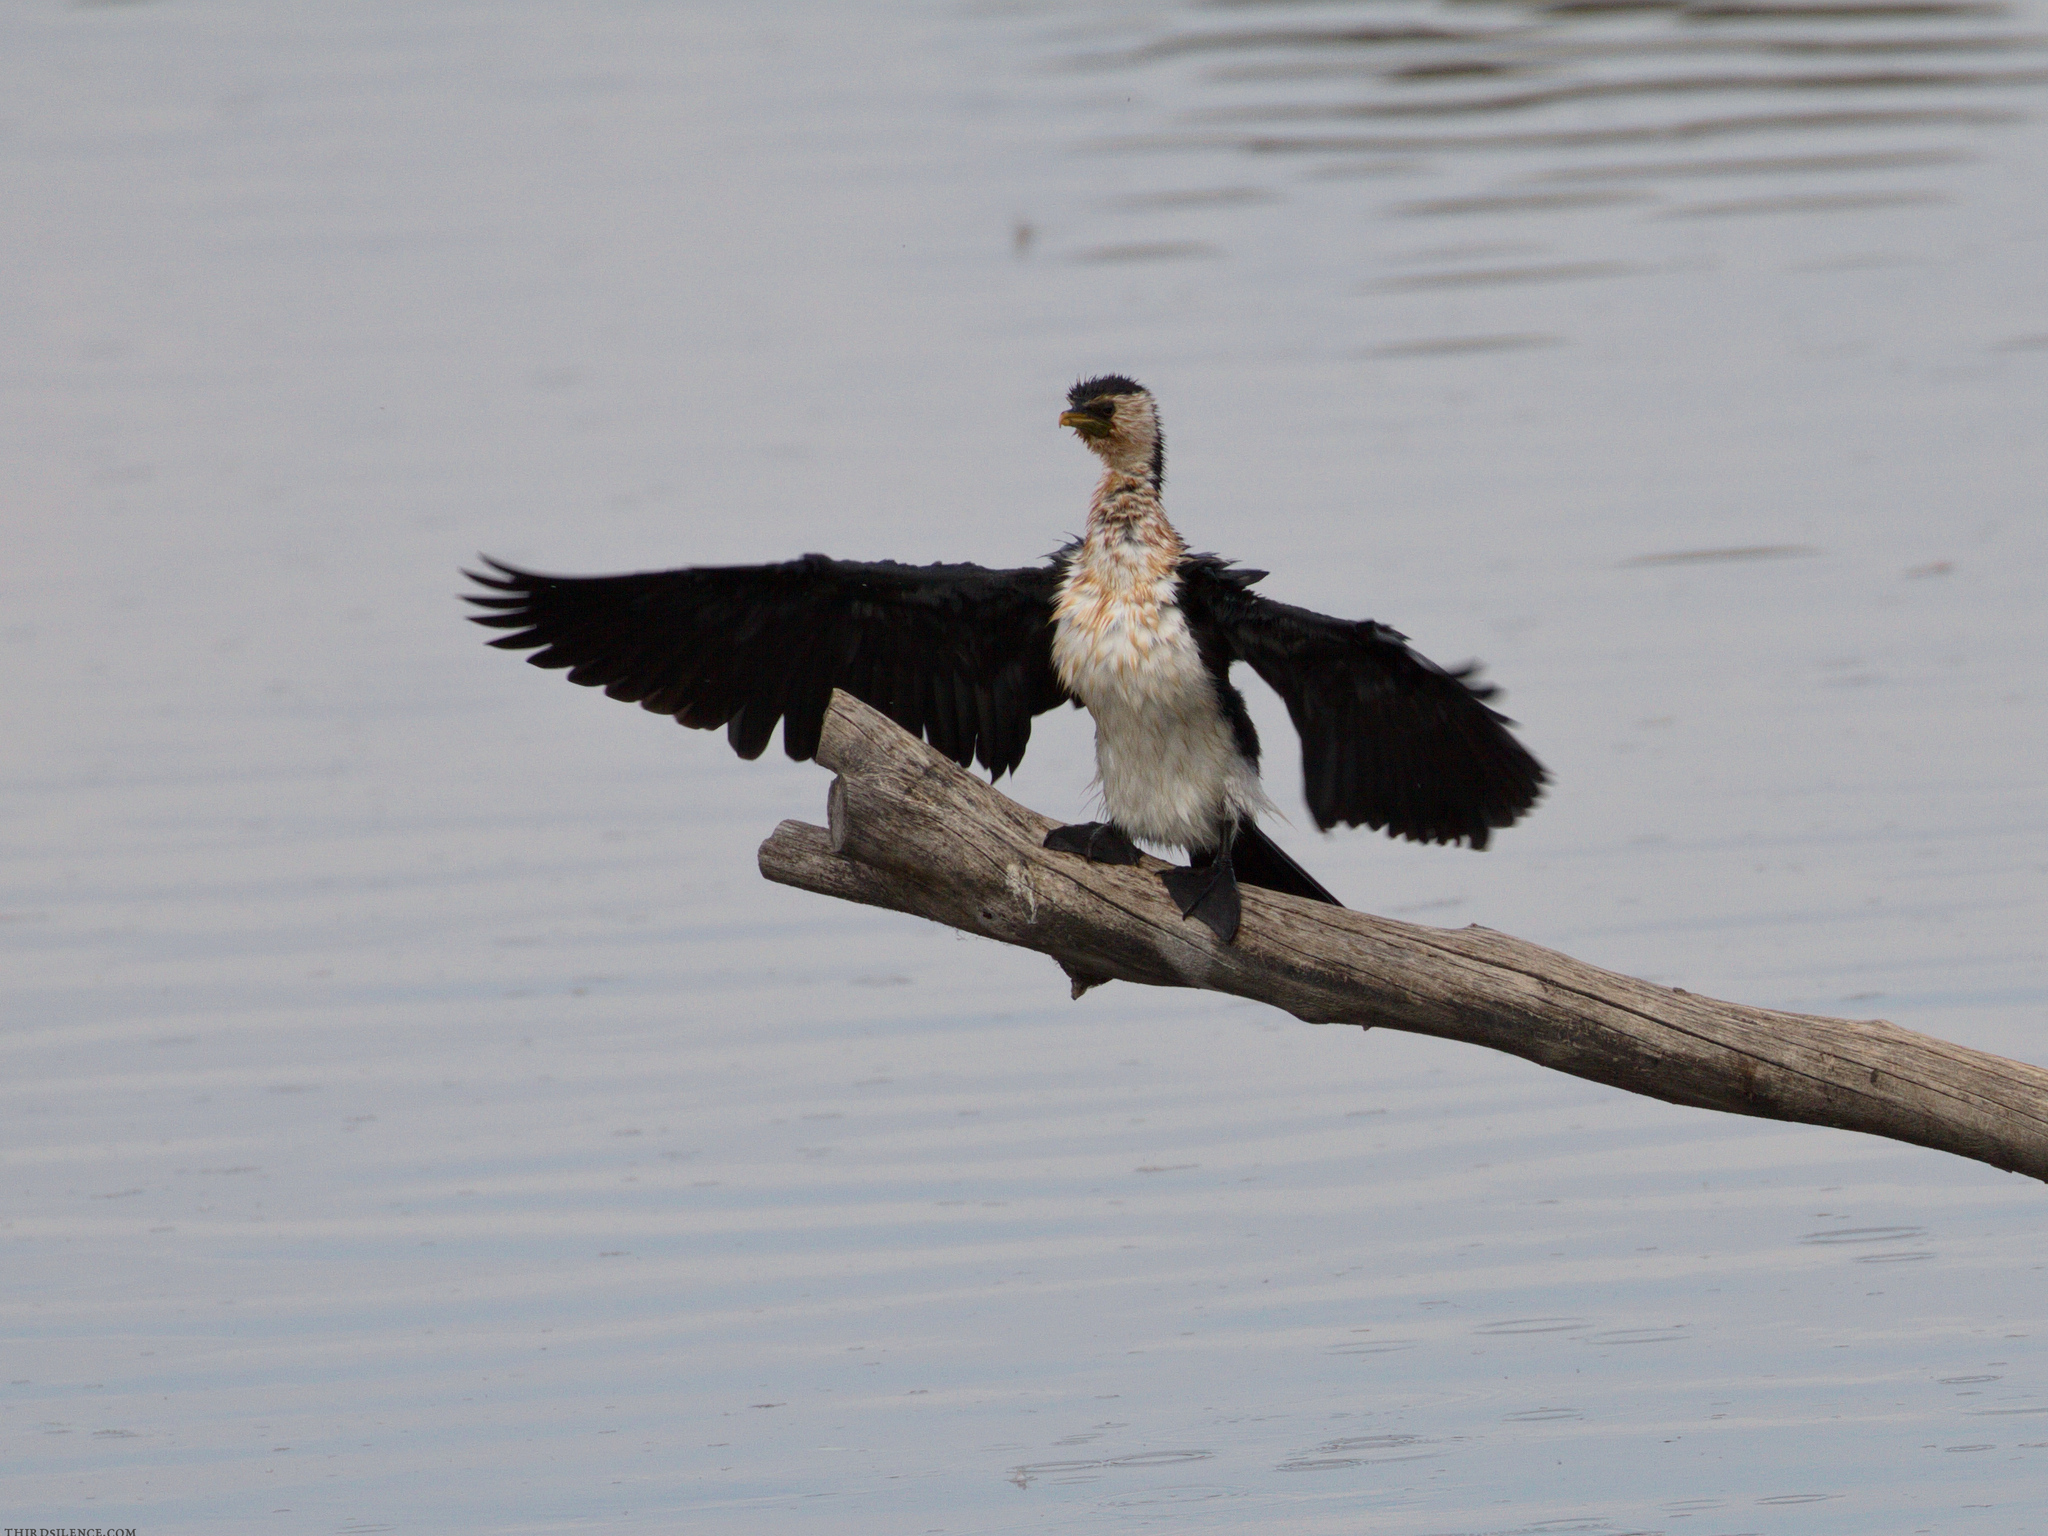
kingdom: Animalia
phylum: Chordata
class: Aves
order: Suliformes
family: Phalacrocoracidae
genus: Microcarbo
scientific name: Microcarbo melanoleucos
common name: Little pied cormorant
